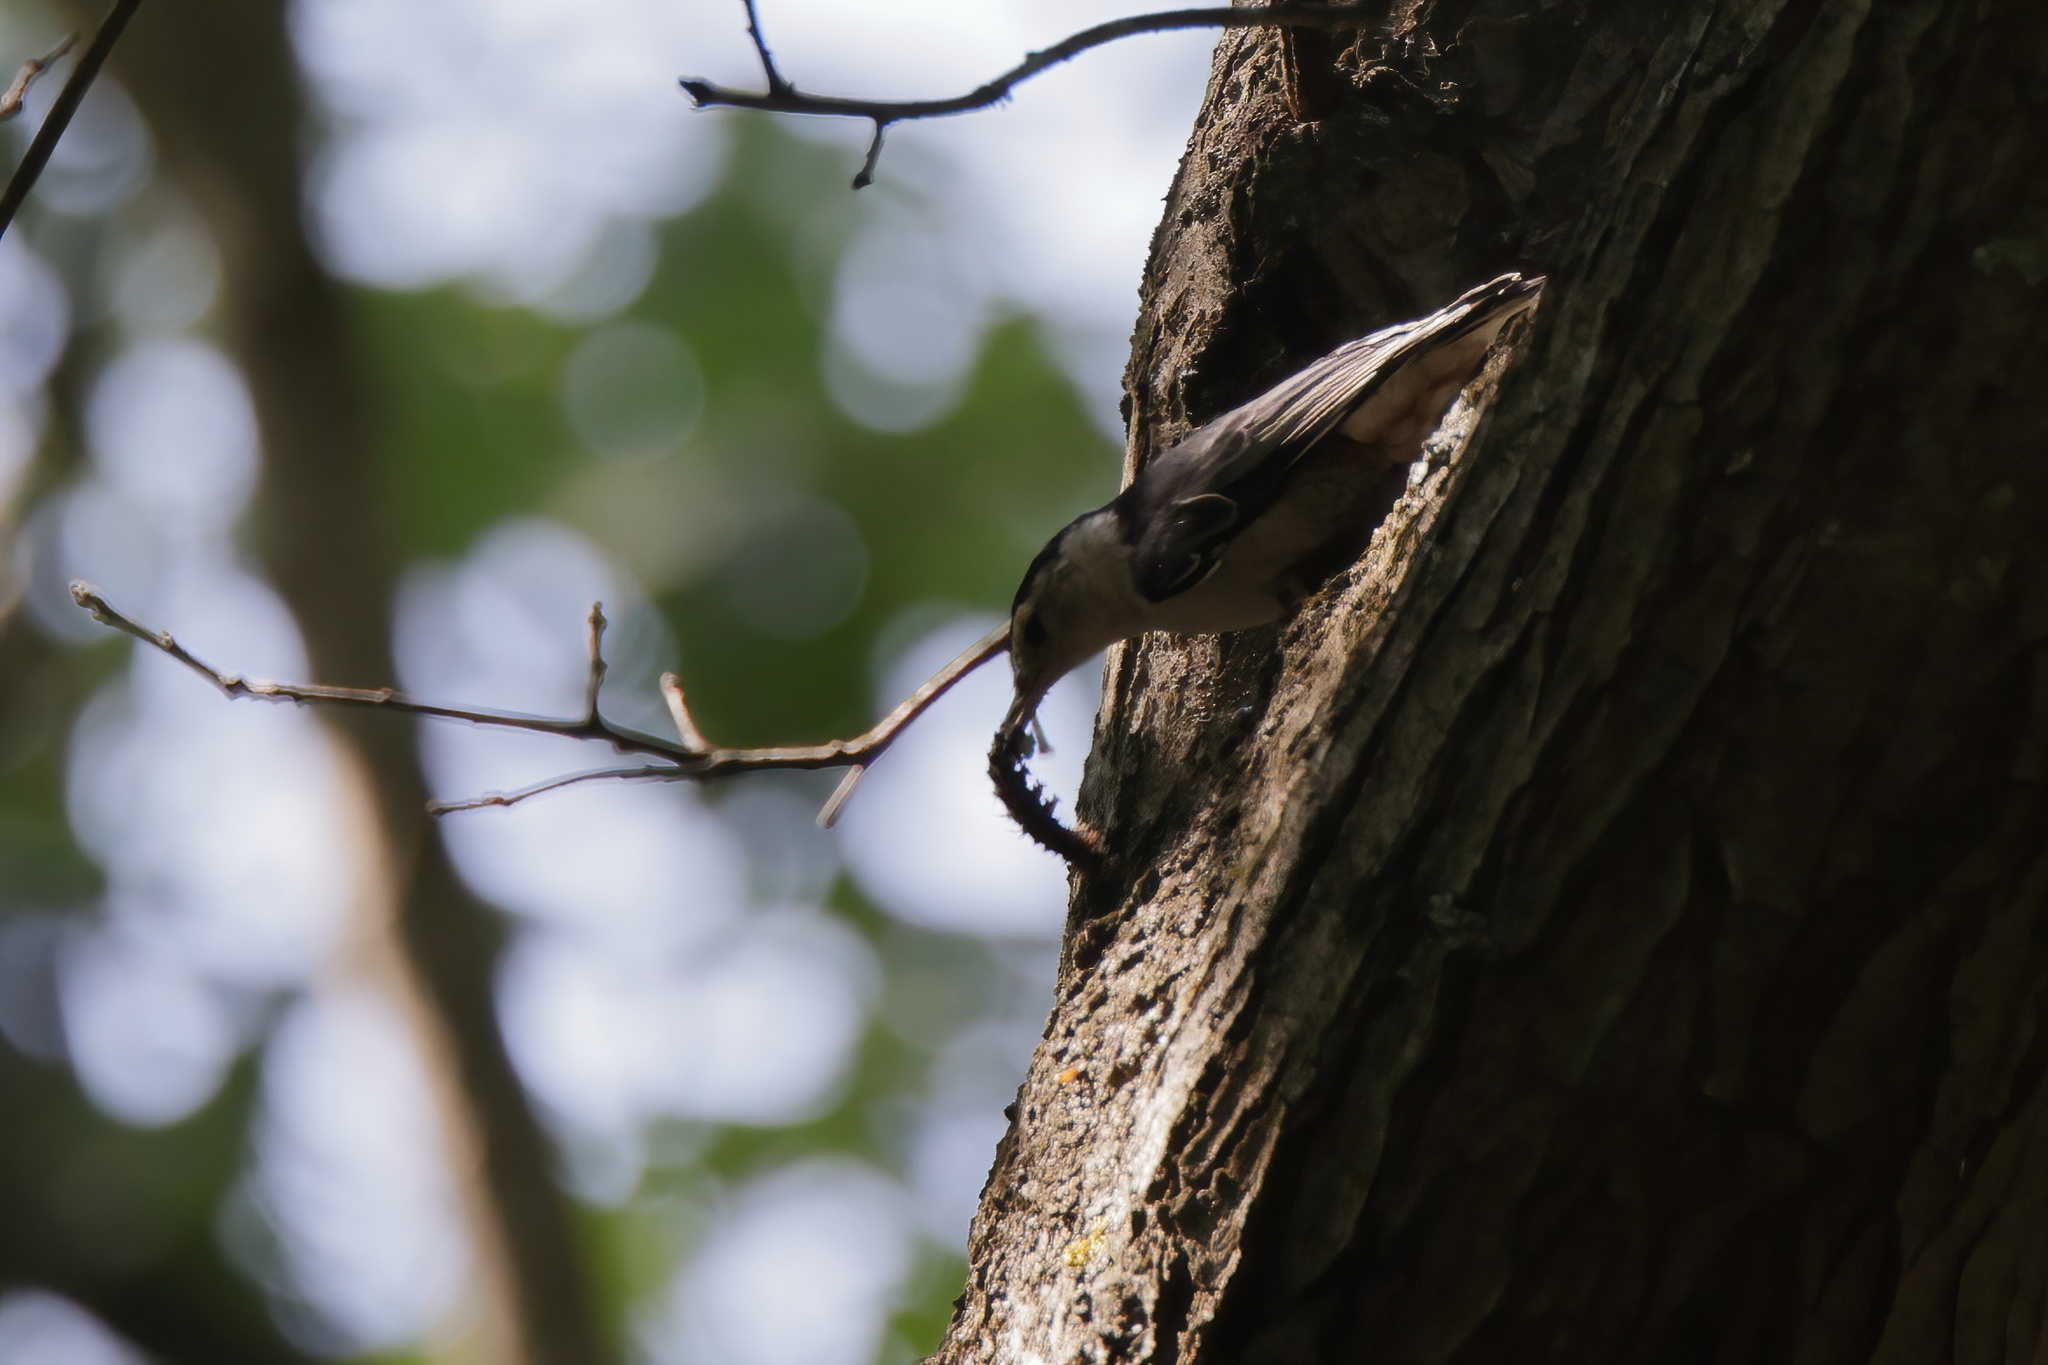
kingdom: Animalia
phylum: Chordata
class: Aves
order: Passeriformes
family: Sittidae
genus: Sitta
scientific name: Sitta carolinensis
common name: White-breasted nuthatch
